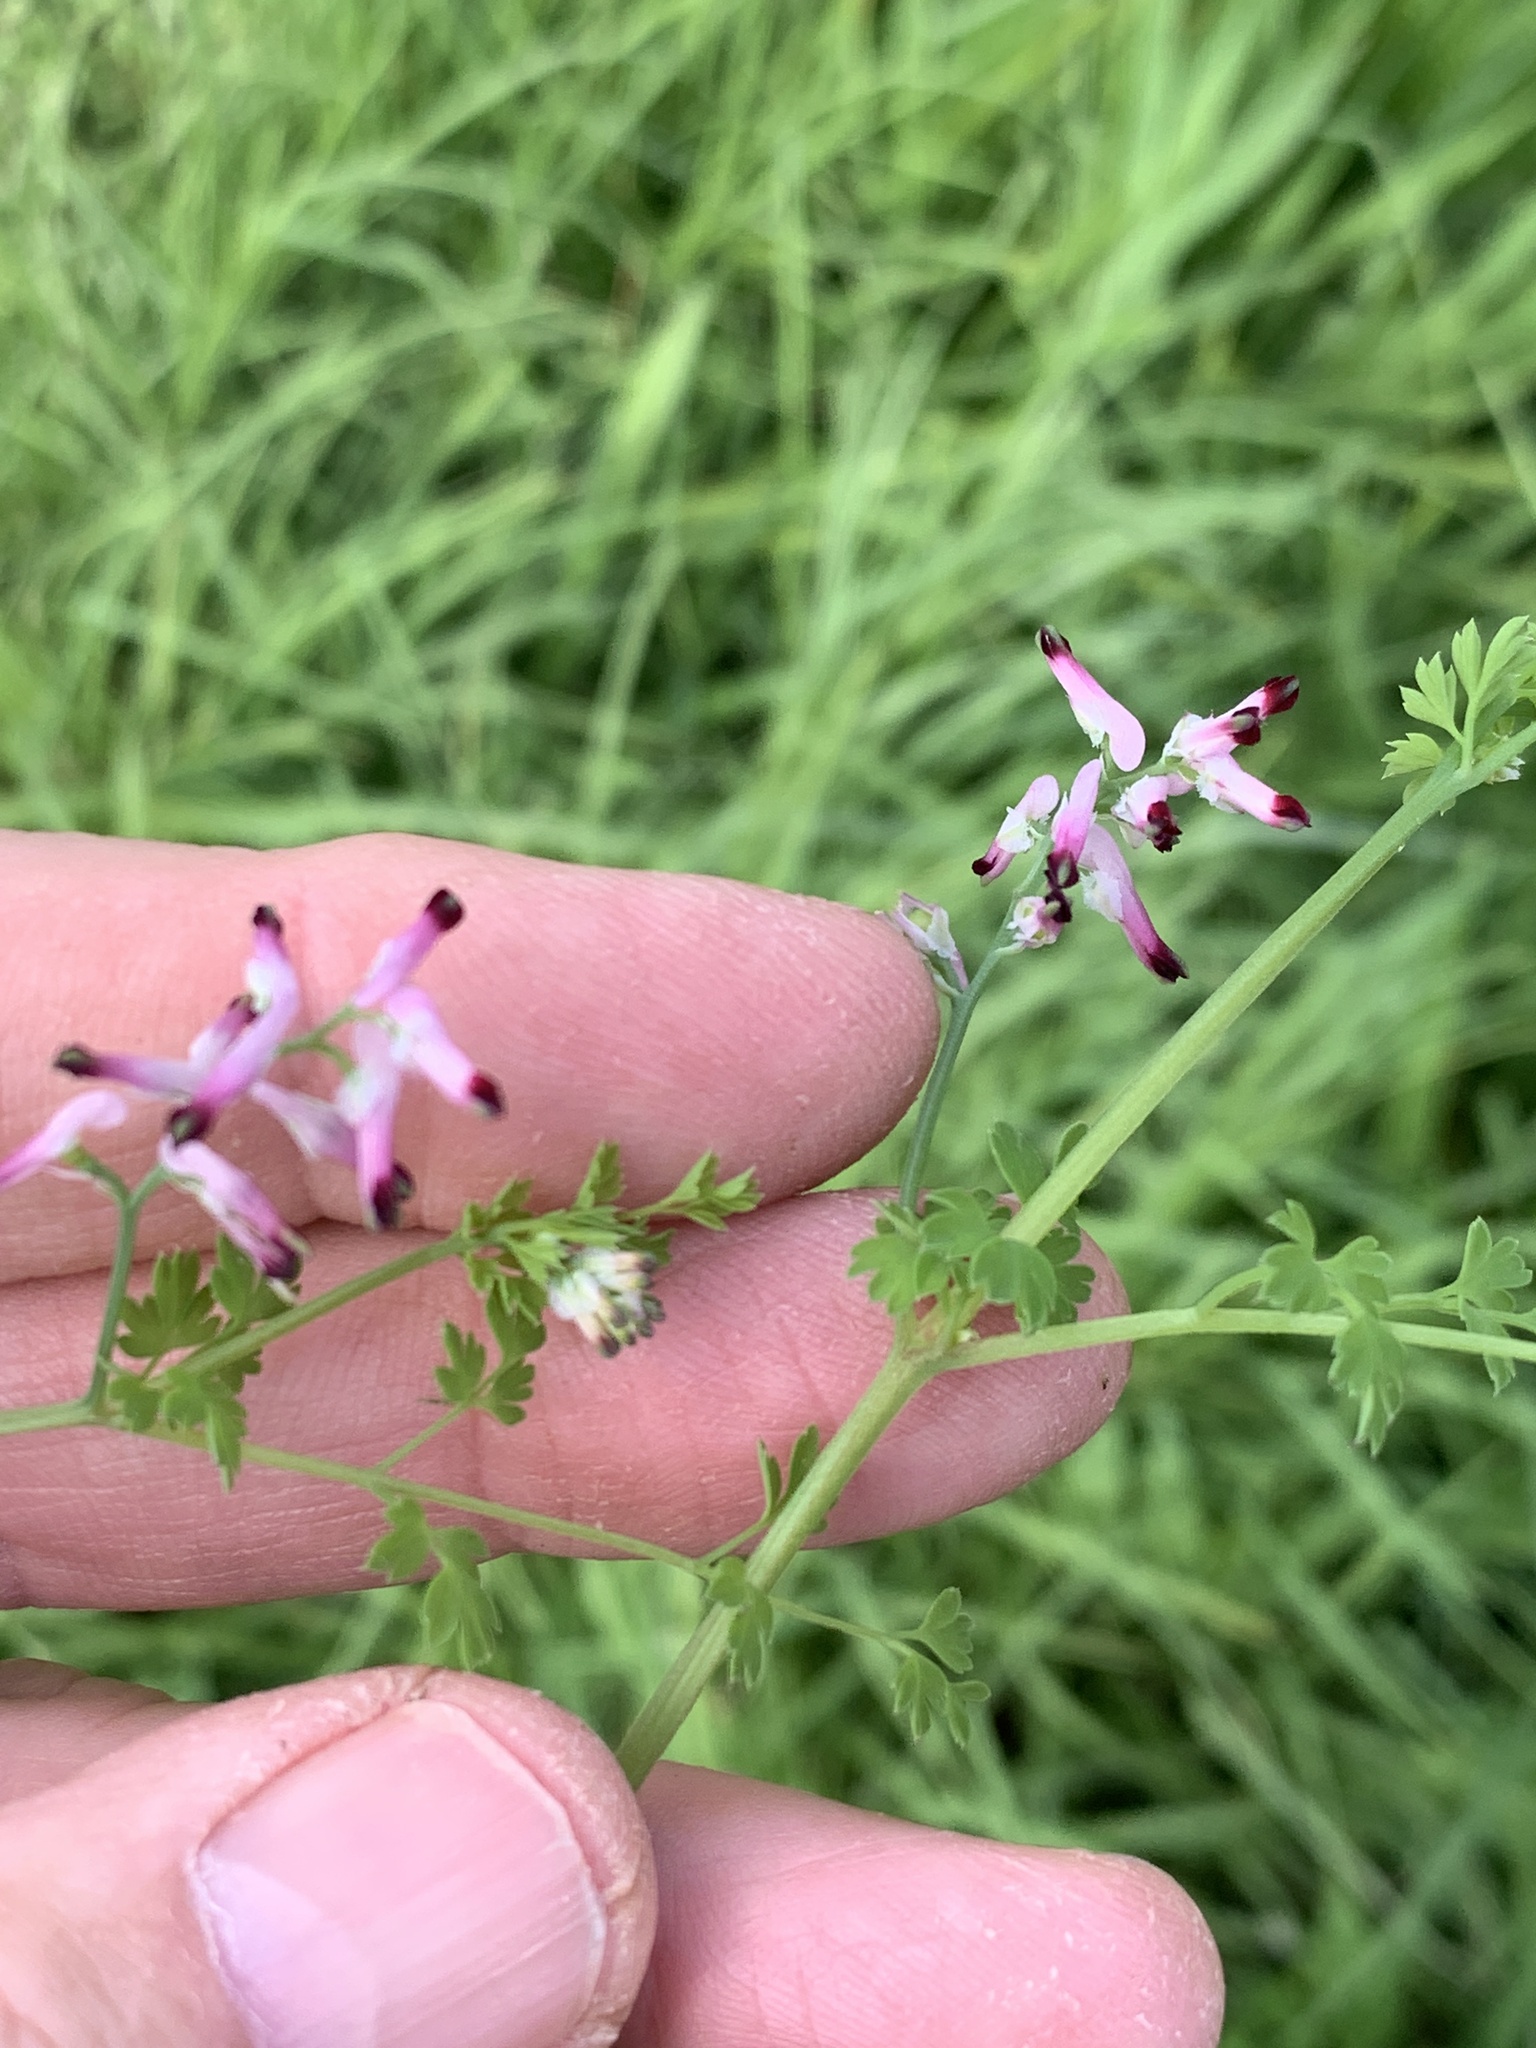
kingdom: Plantae
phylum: Tracheophyta
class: Magnoliopsida
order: Ranunculales
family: Papaveraceae
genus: Fumaria
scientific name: Fumaria muralis
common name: Common ramping-fumitory
